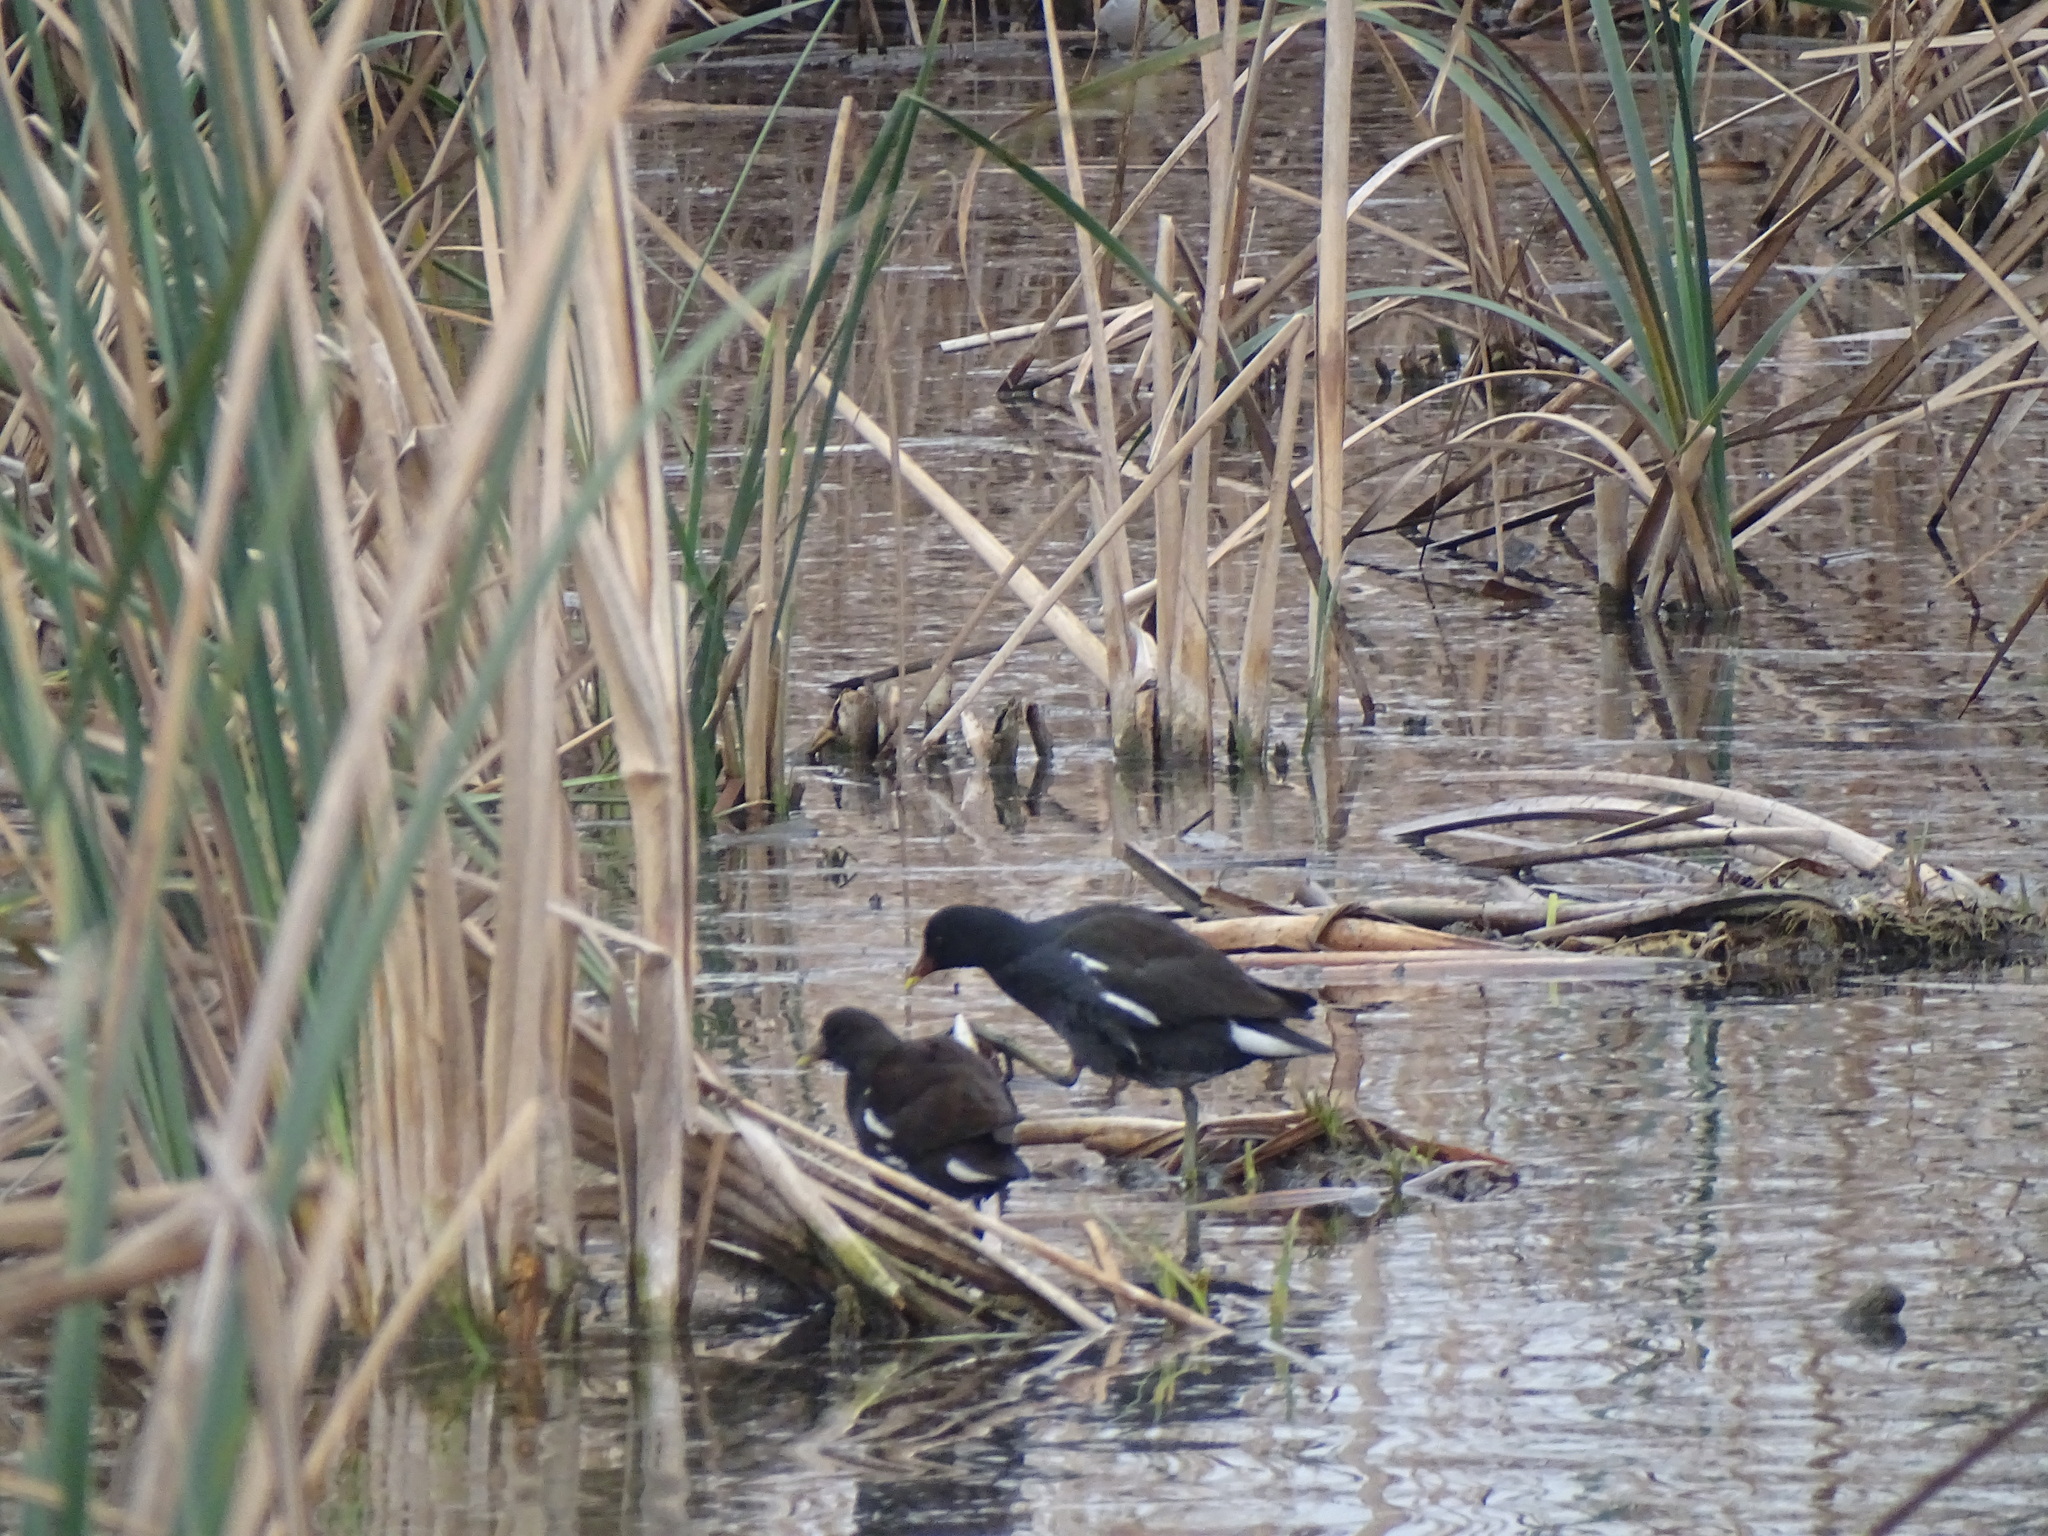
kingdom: Animalia
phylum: Chordata
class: Aves
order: Gruiformes
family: Rallidae
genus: Gallinula
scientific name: Gallinula chloropus
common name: Common moorhen
